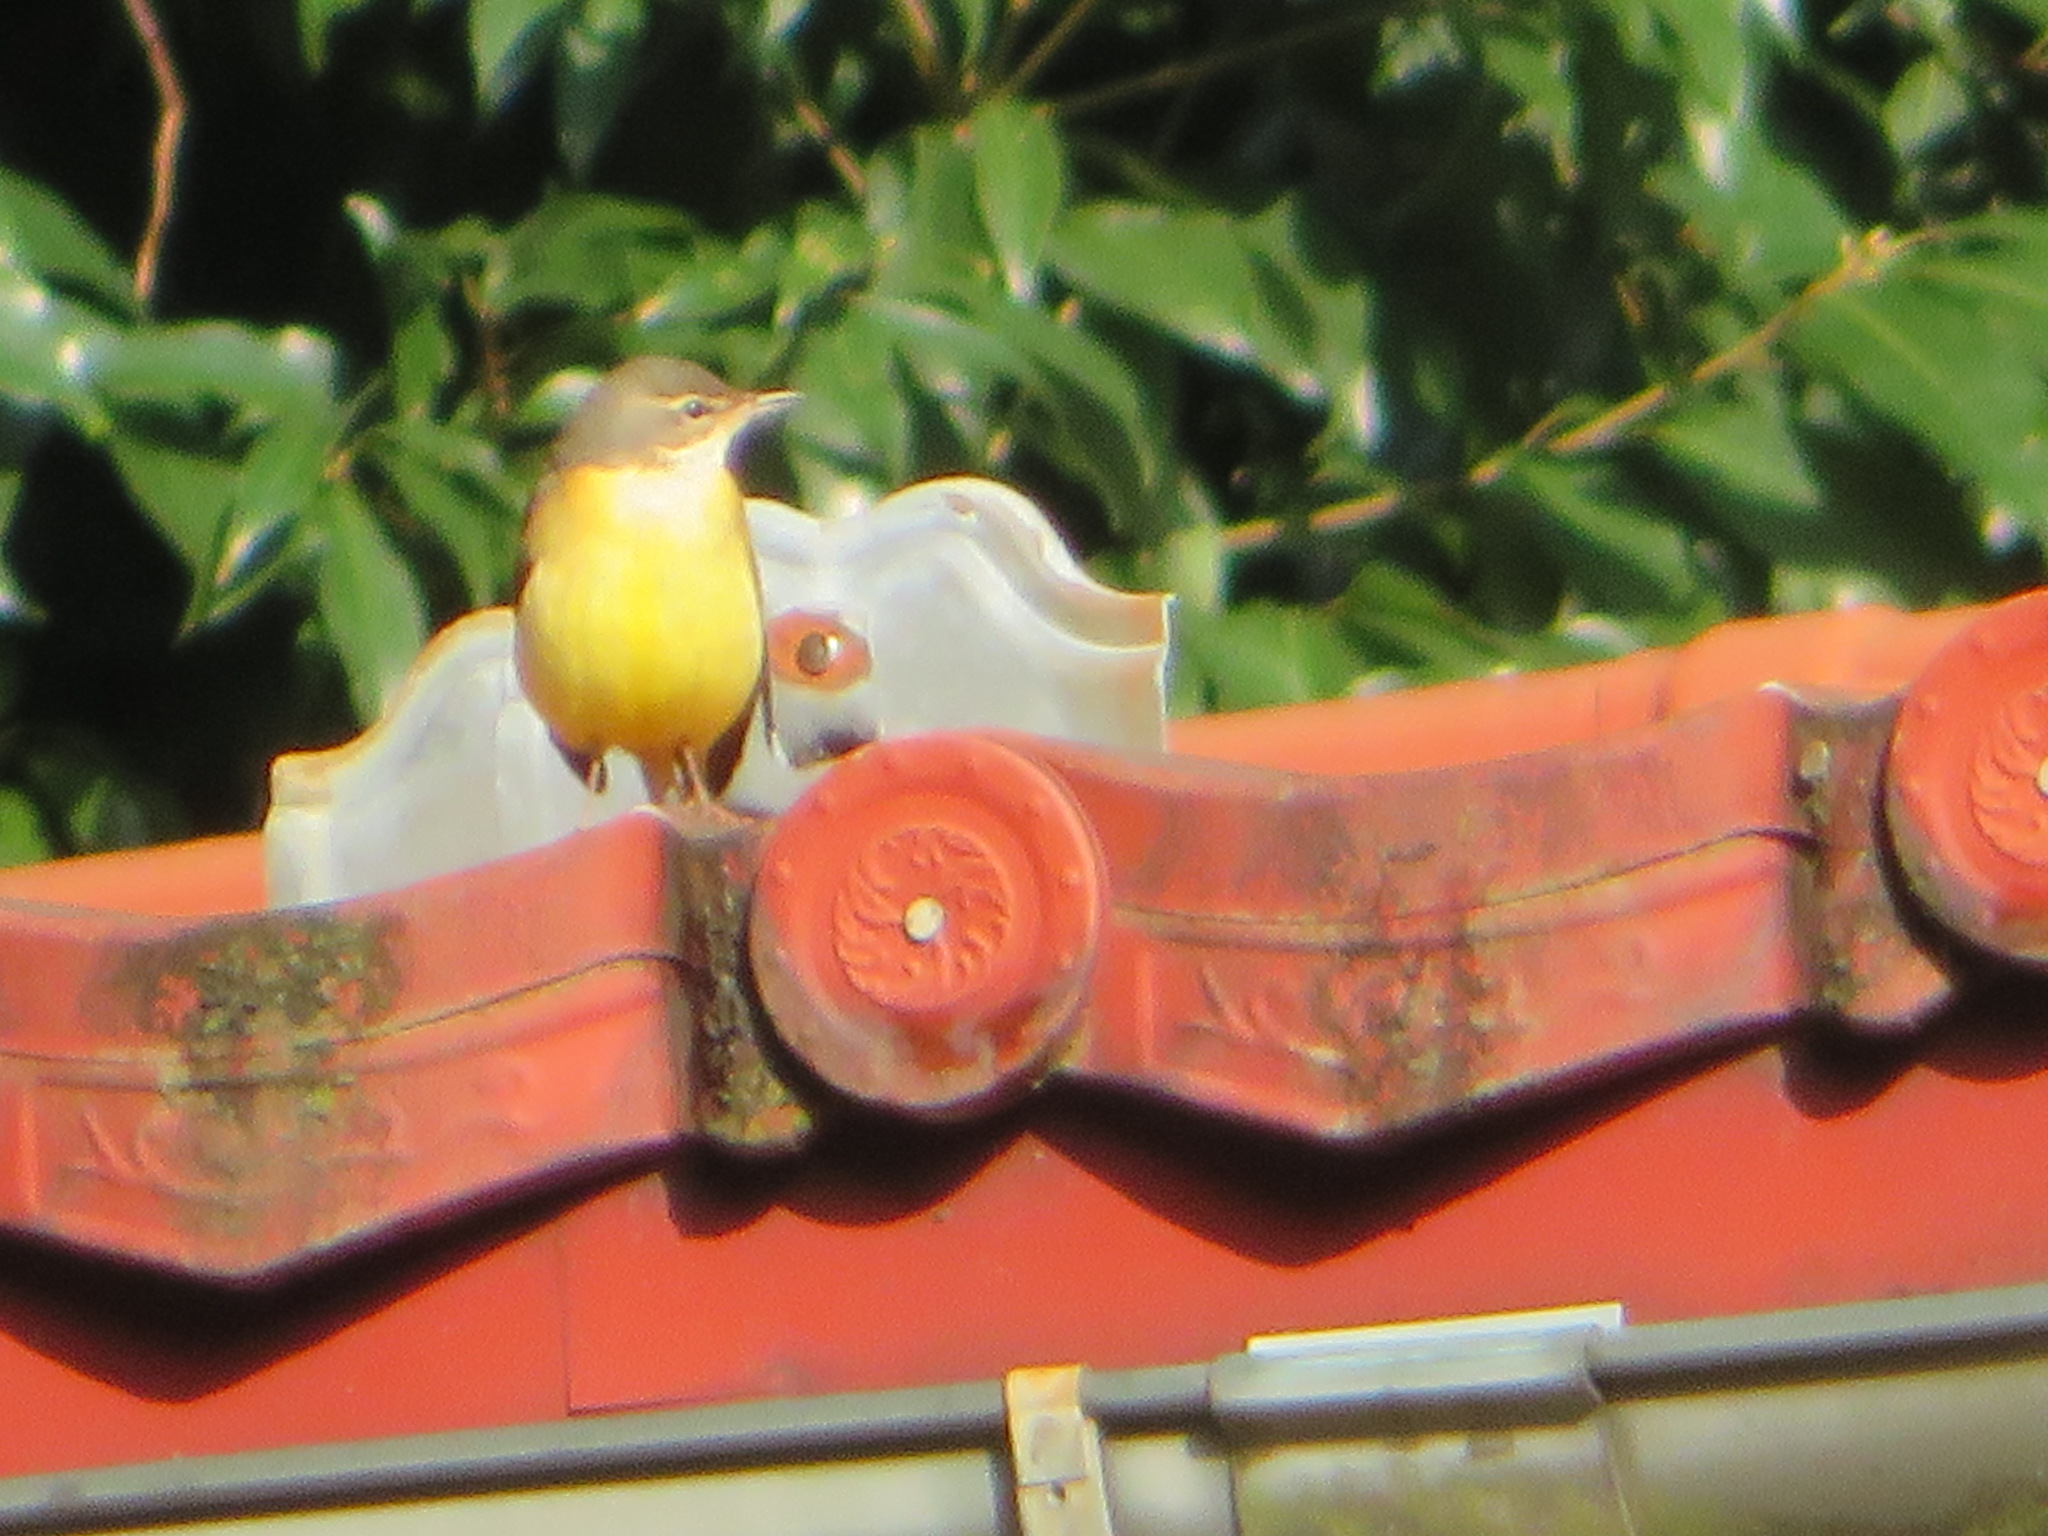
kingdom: Animalia
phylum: Chordata
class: Aves
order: Passeriformes
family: Motacillidae
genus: Motacilla
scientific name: Motacilla cinerea
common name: Grey wagtail
